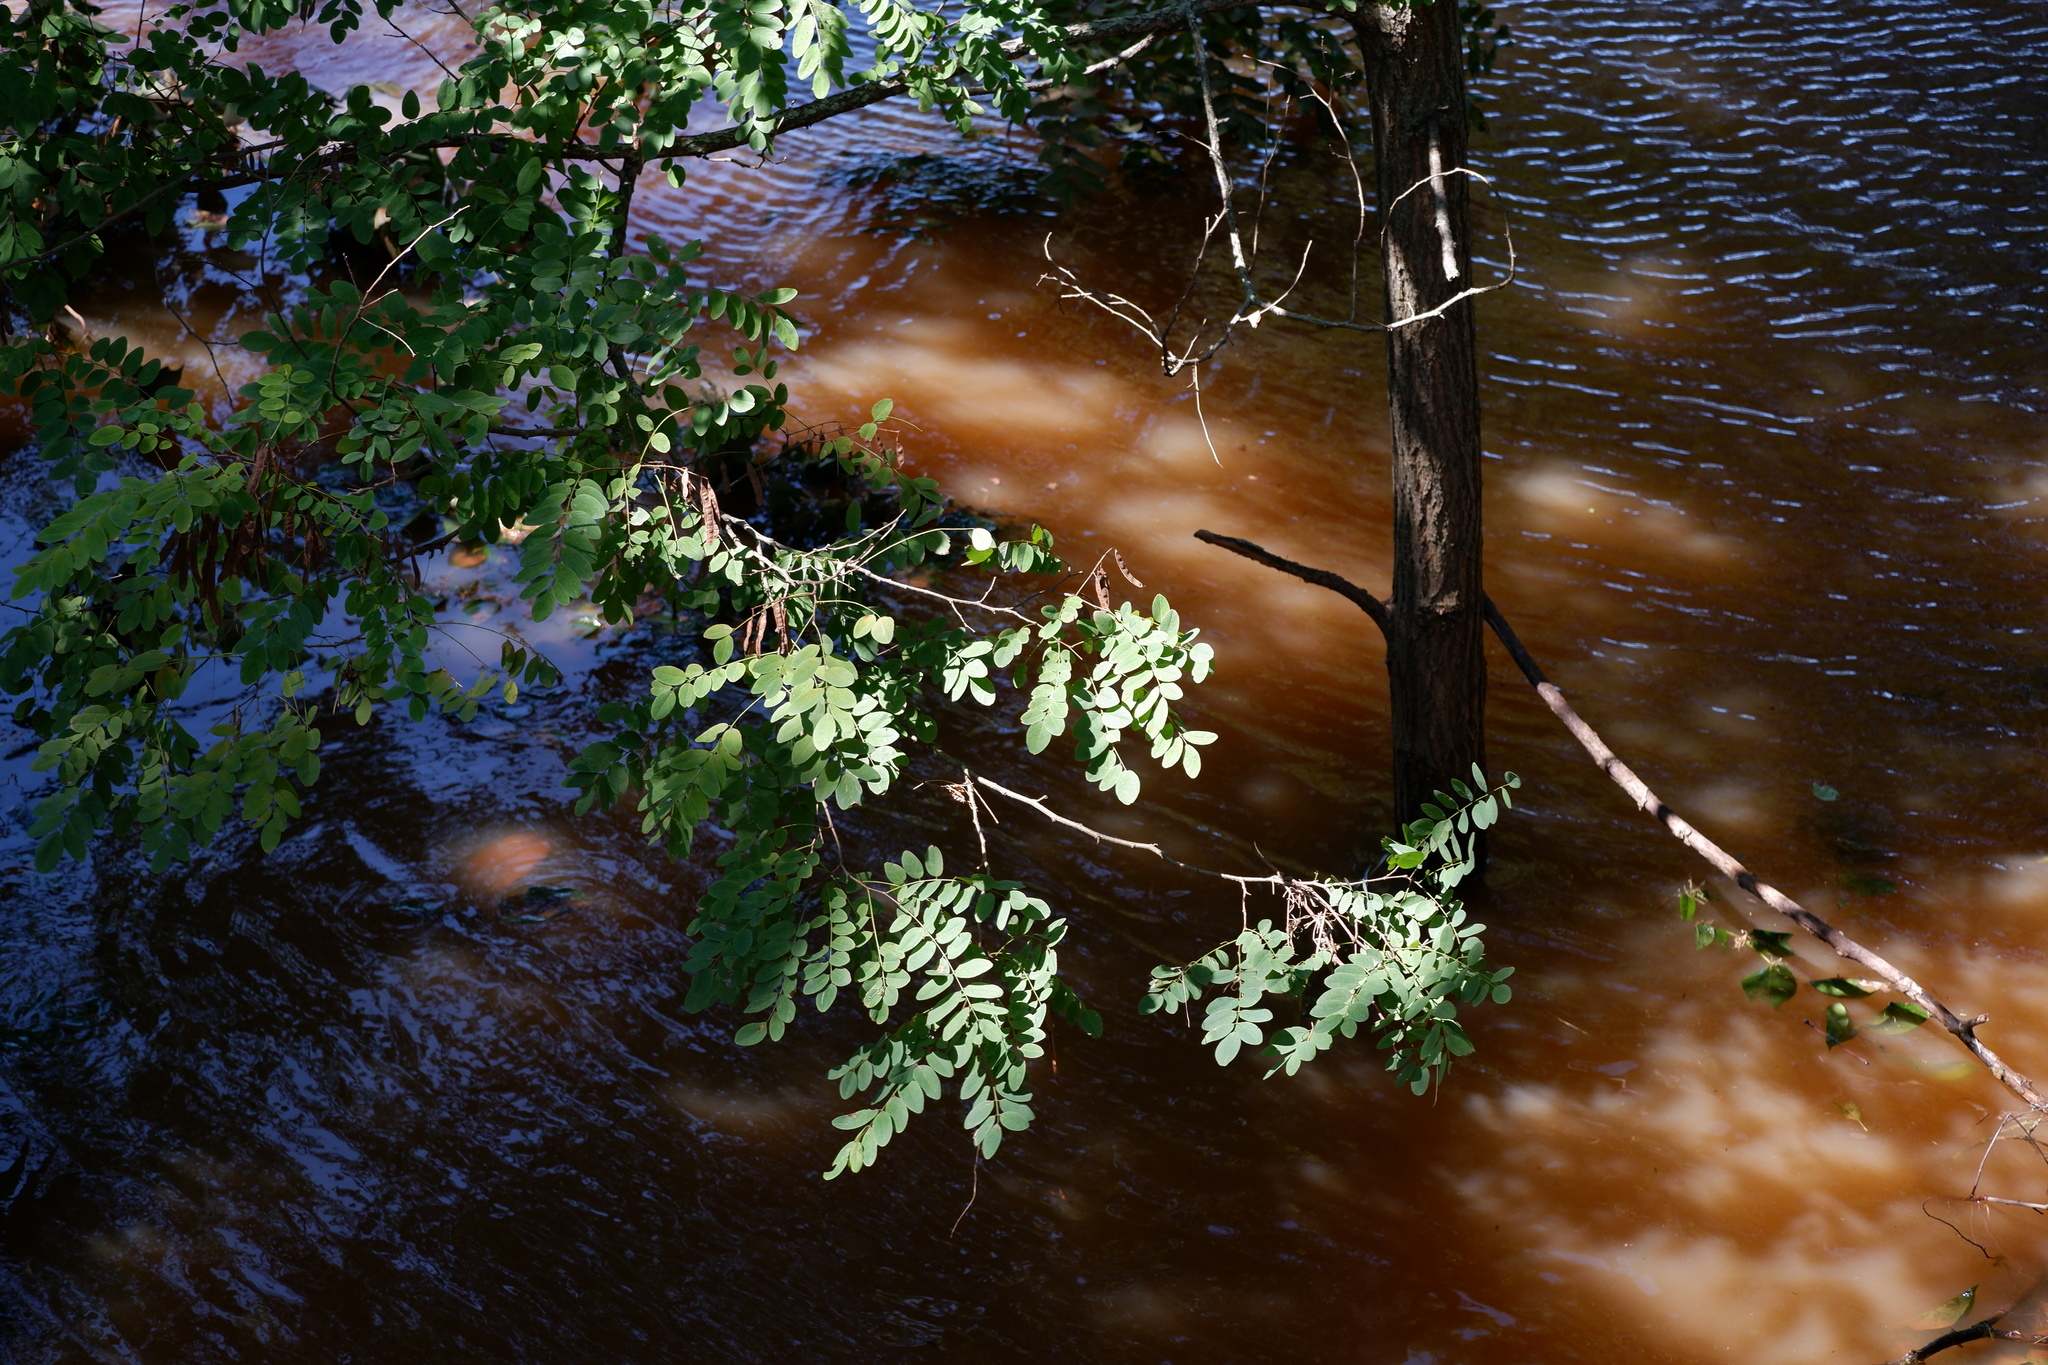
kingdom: Plantae
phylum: Tracheophyta
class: Magnoliopsida
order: Fabales
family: Fabaceae
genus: Robinia
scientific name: Robinia pseudoacacia
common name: Black locust
